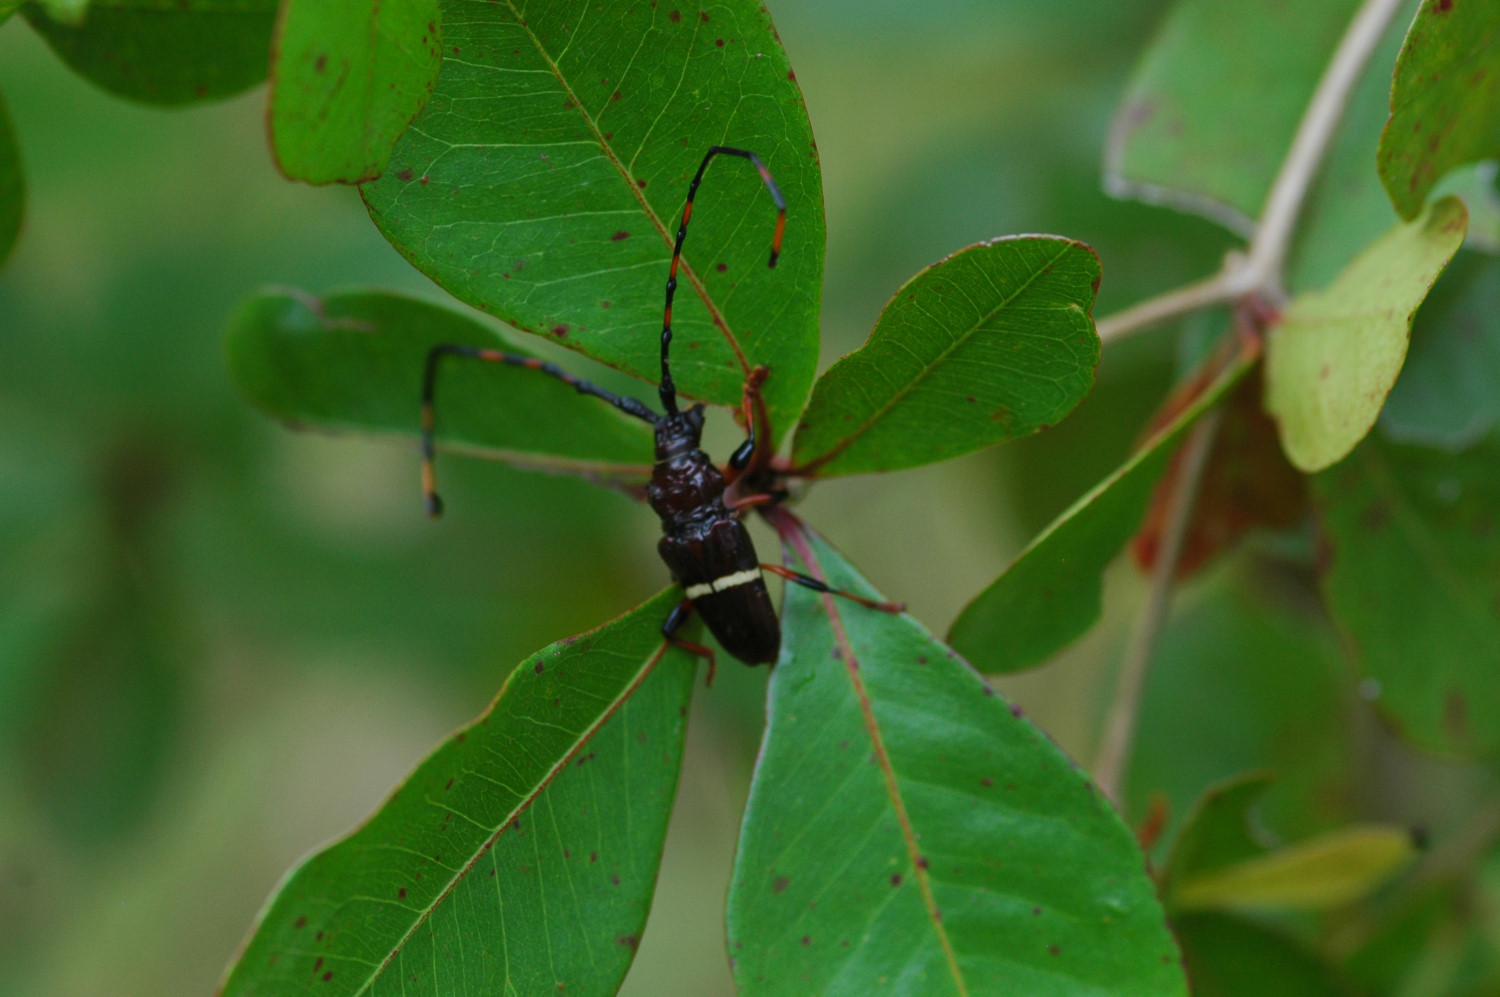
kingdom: Animalia
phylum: Arthropoda
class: Insecta
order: Coleoptera
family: Cerambycidae
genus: Trachyderes
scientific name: Trachyderes succinctus
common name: Mango longhorn
